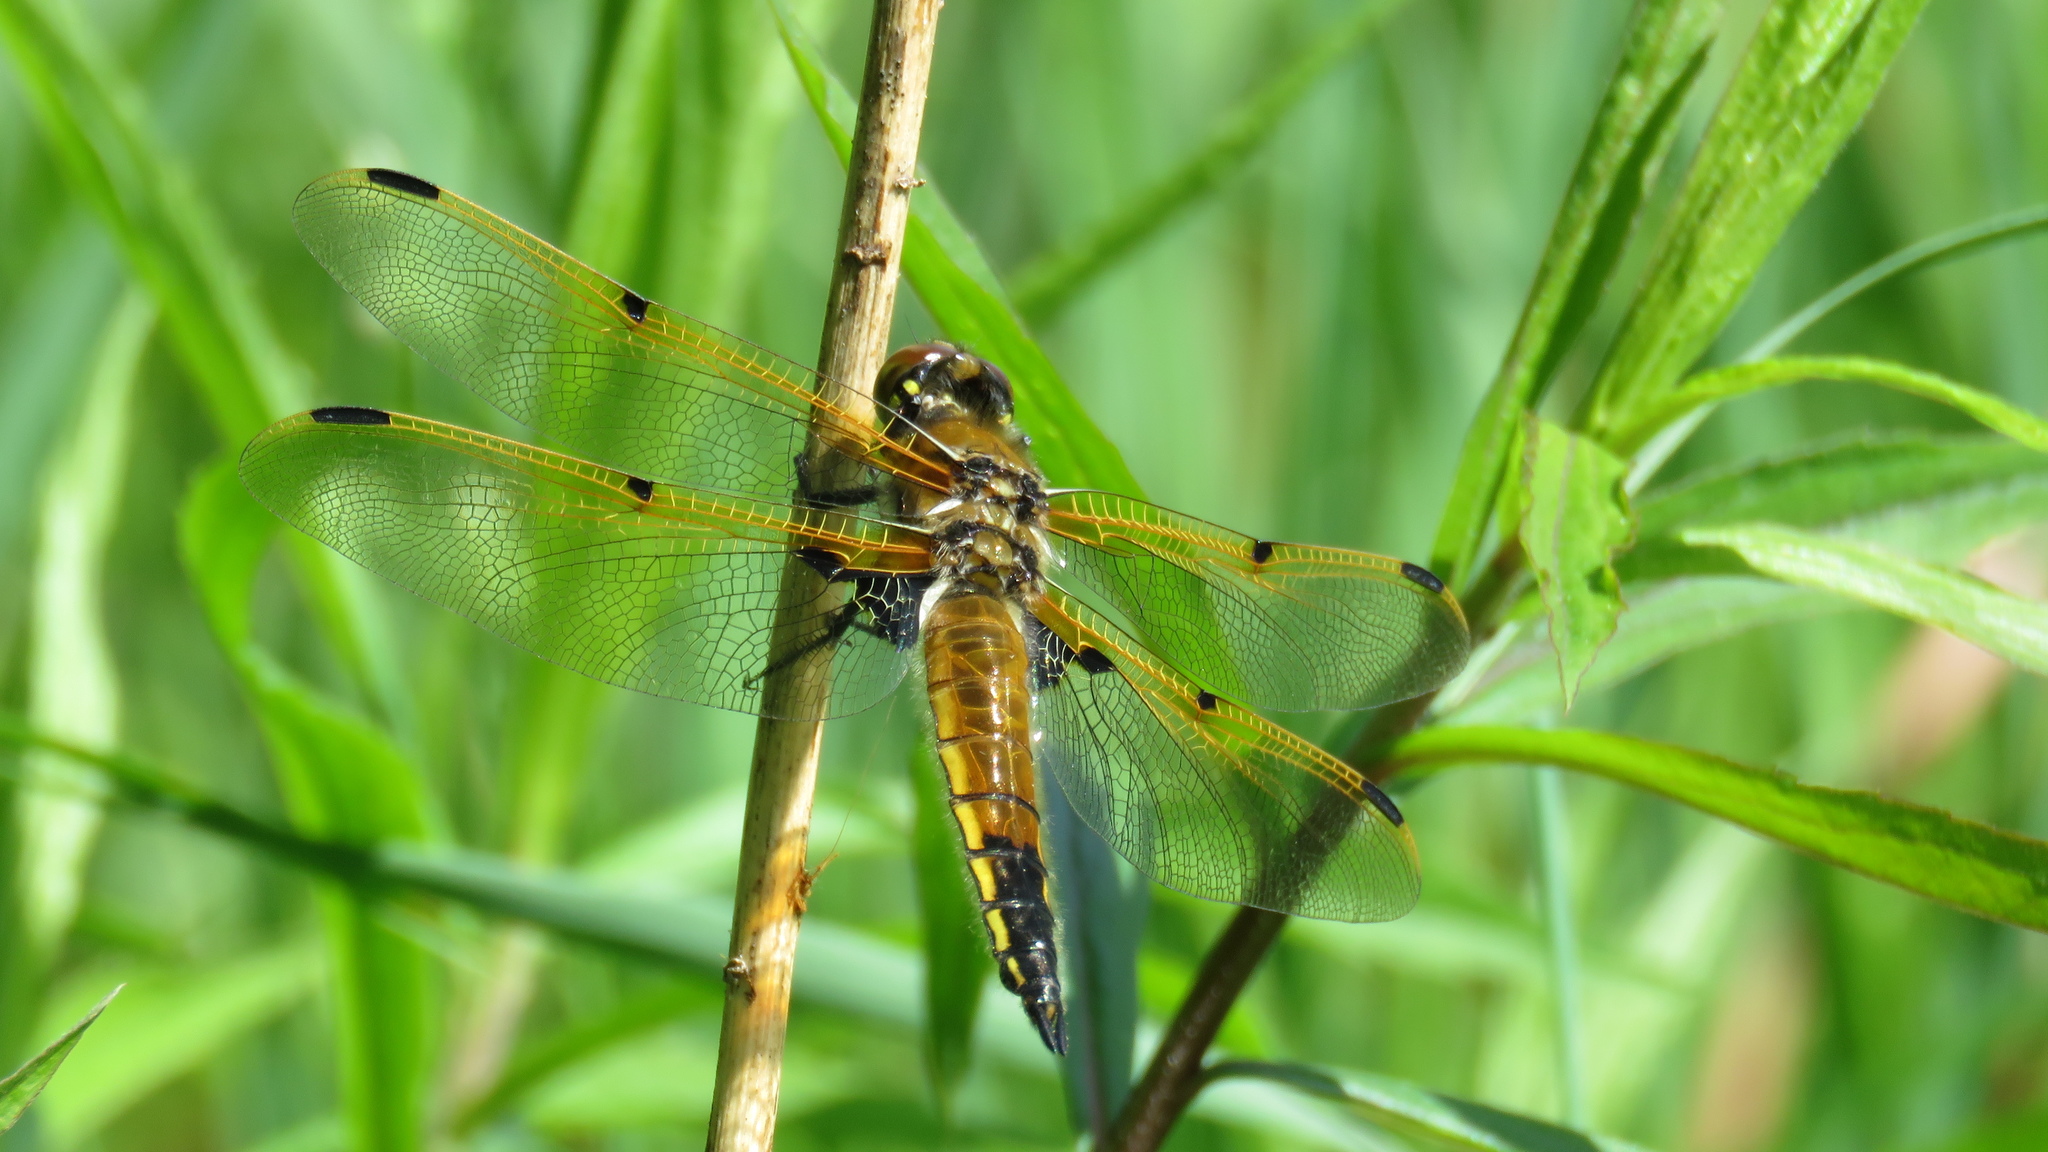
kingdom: Animalia
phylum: Arthropoda
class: Insecta
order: Odonata
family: Libellulidae
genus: Libellula
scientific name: Libellula quadrimaculata
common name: Four-spotted chaser
